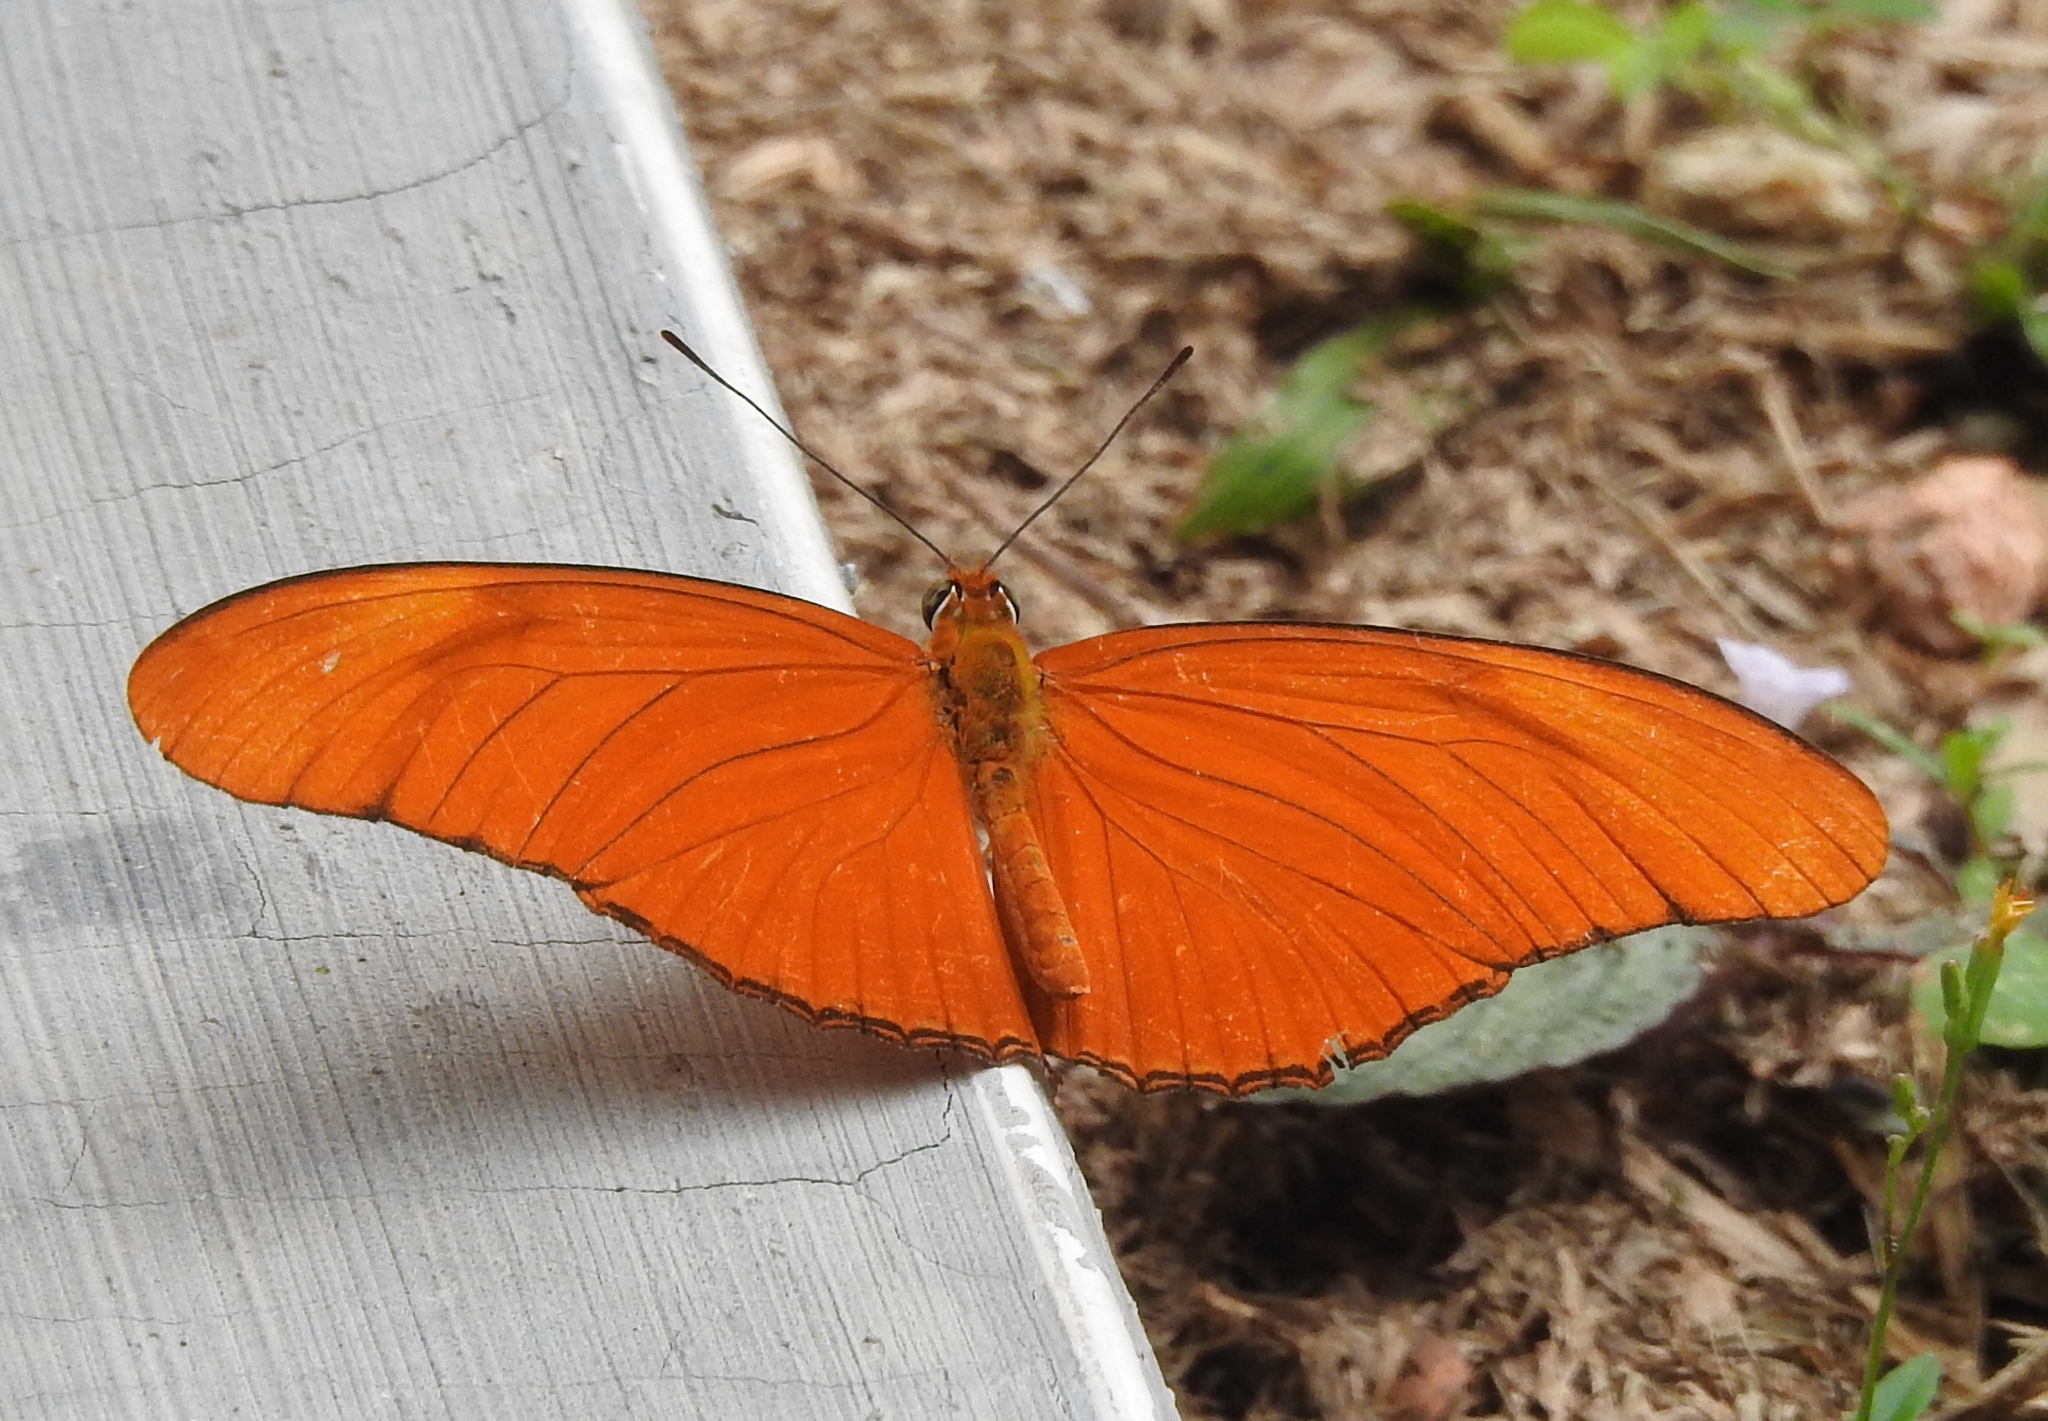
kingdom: Animalia
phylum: Arthropoda
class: Insecta
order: Lepidoptera
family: Nymphalidae
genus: Dryas
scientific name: Dryas iulia
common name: Flambeau
